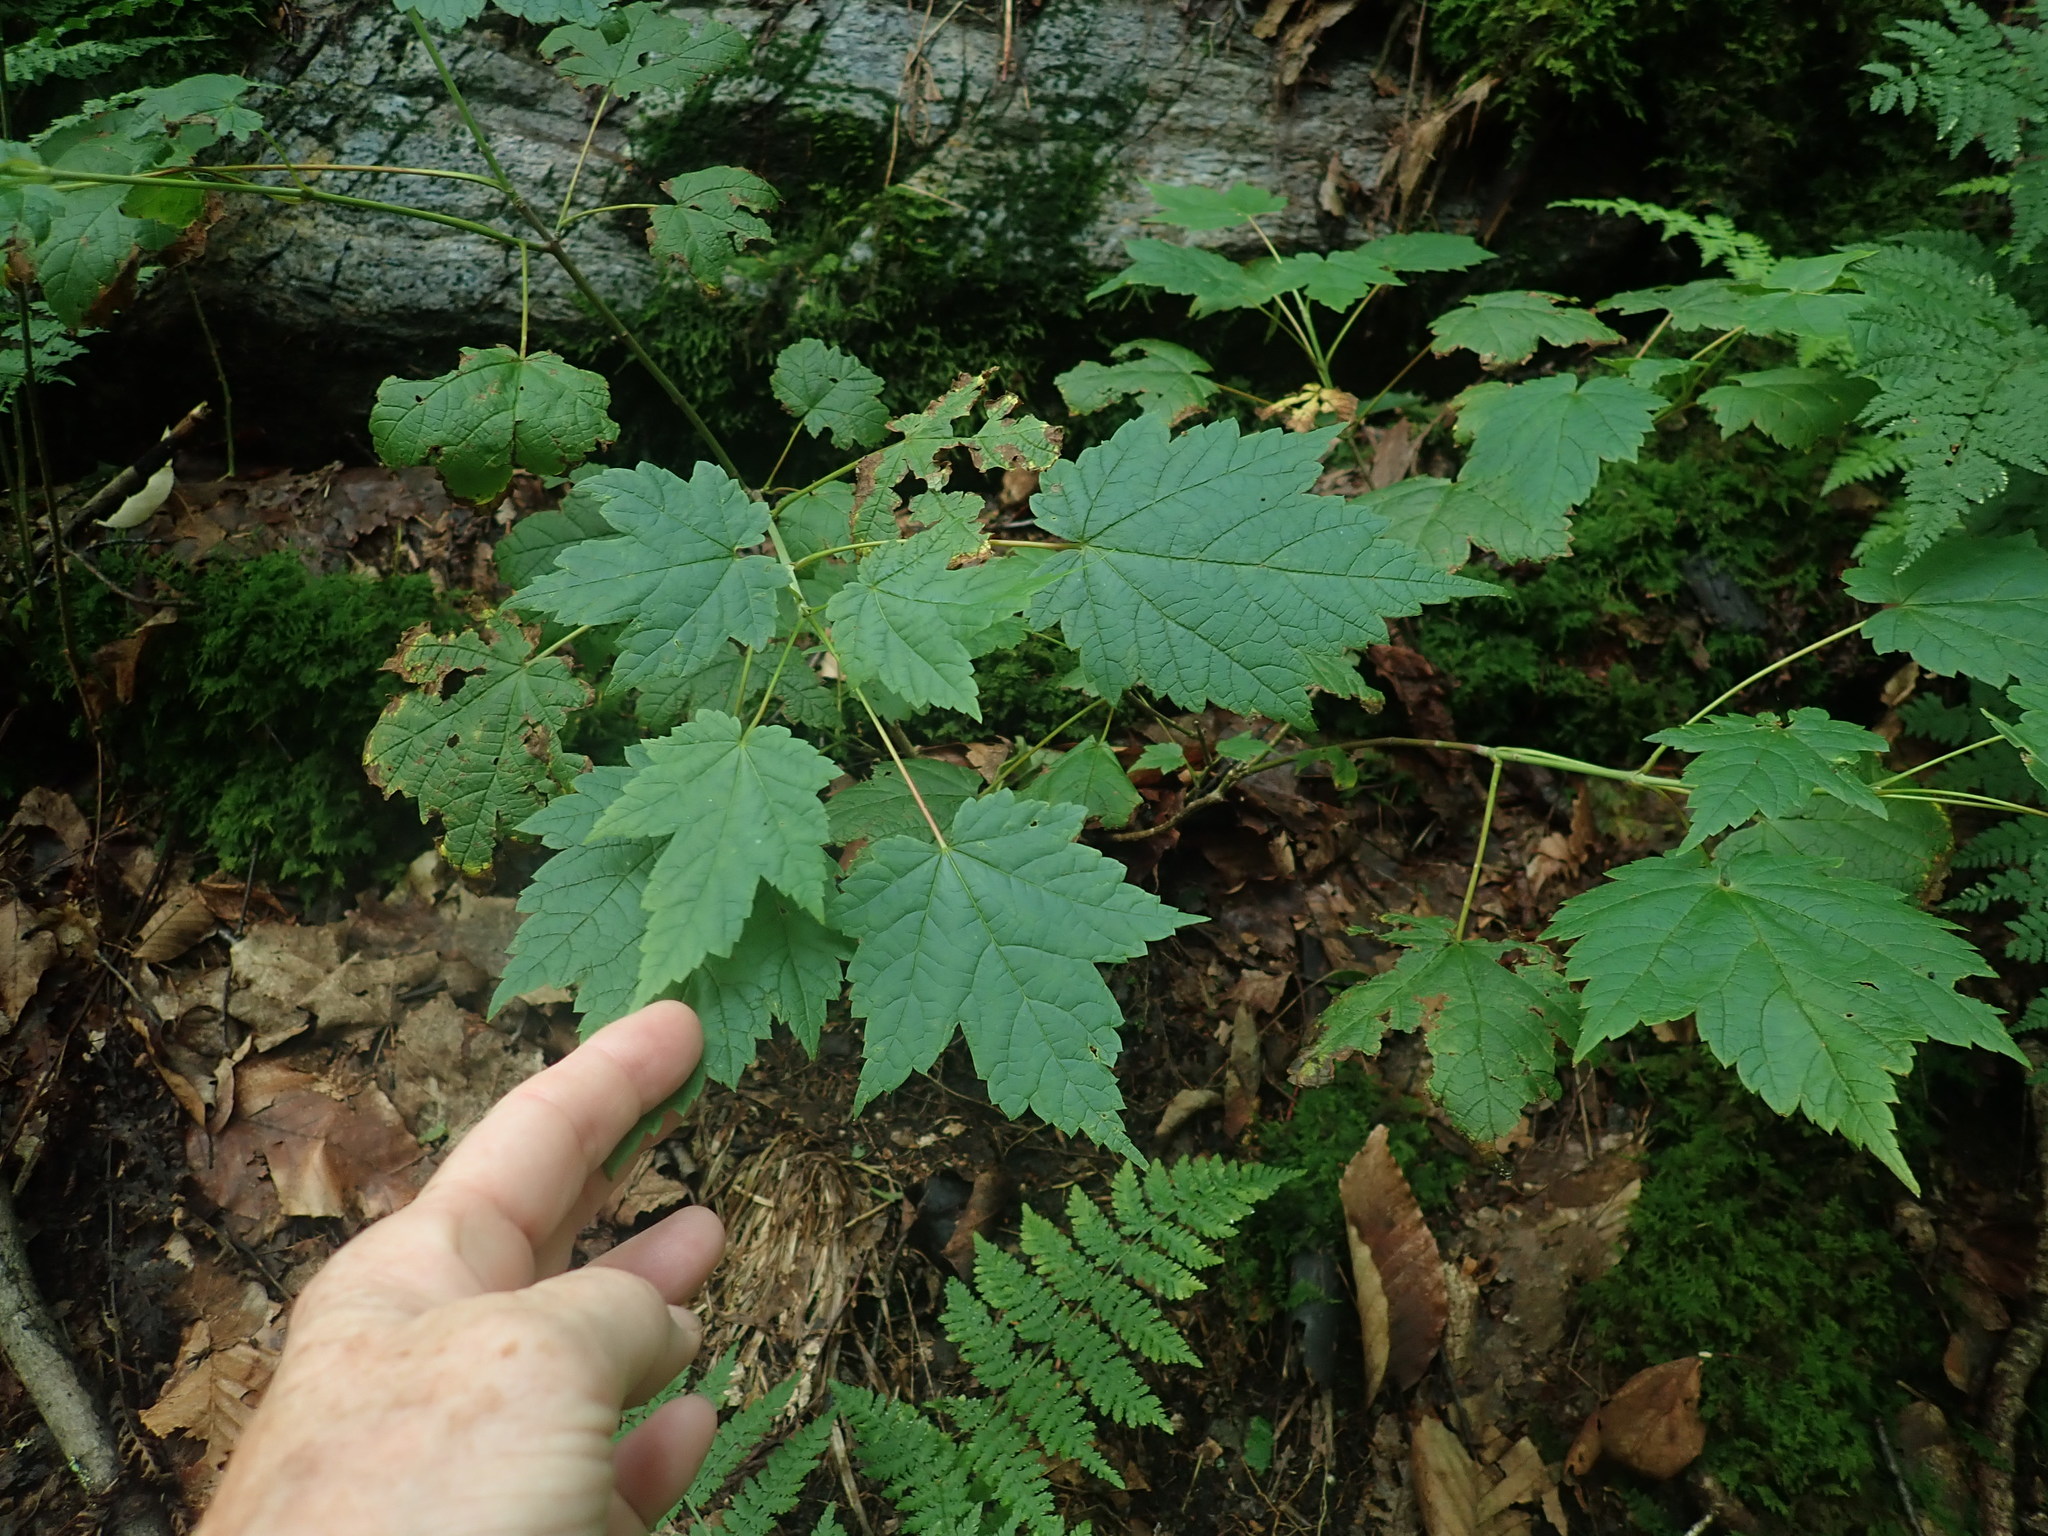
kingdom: Plantae
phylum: Tracheophyta
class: Magnoliopsida
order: Sapindales
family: Sapindaceae
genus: Acer
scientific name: Acer spicatum
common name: Mountain maple
